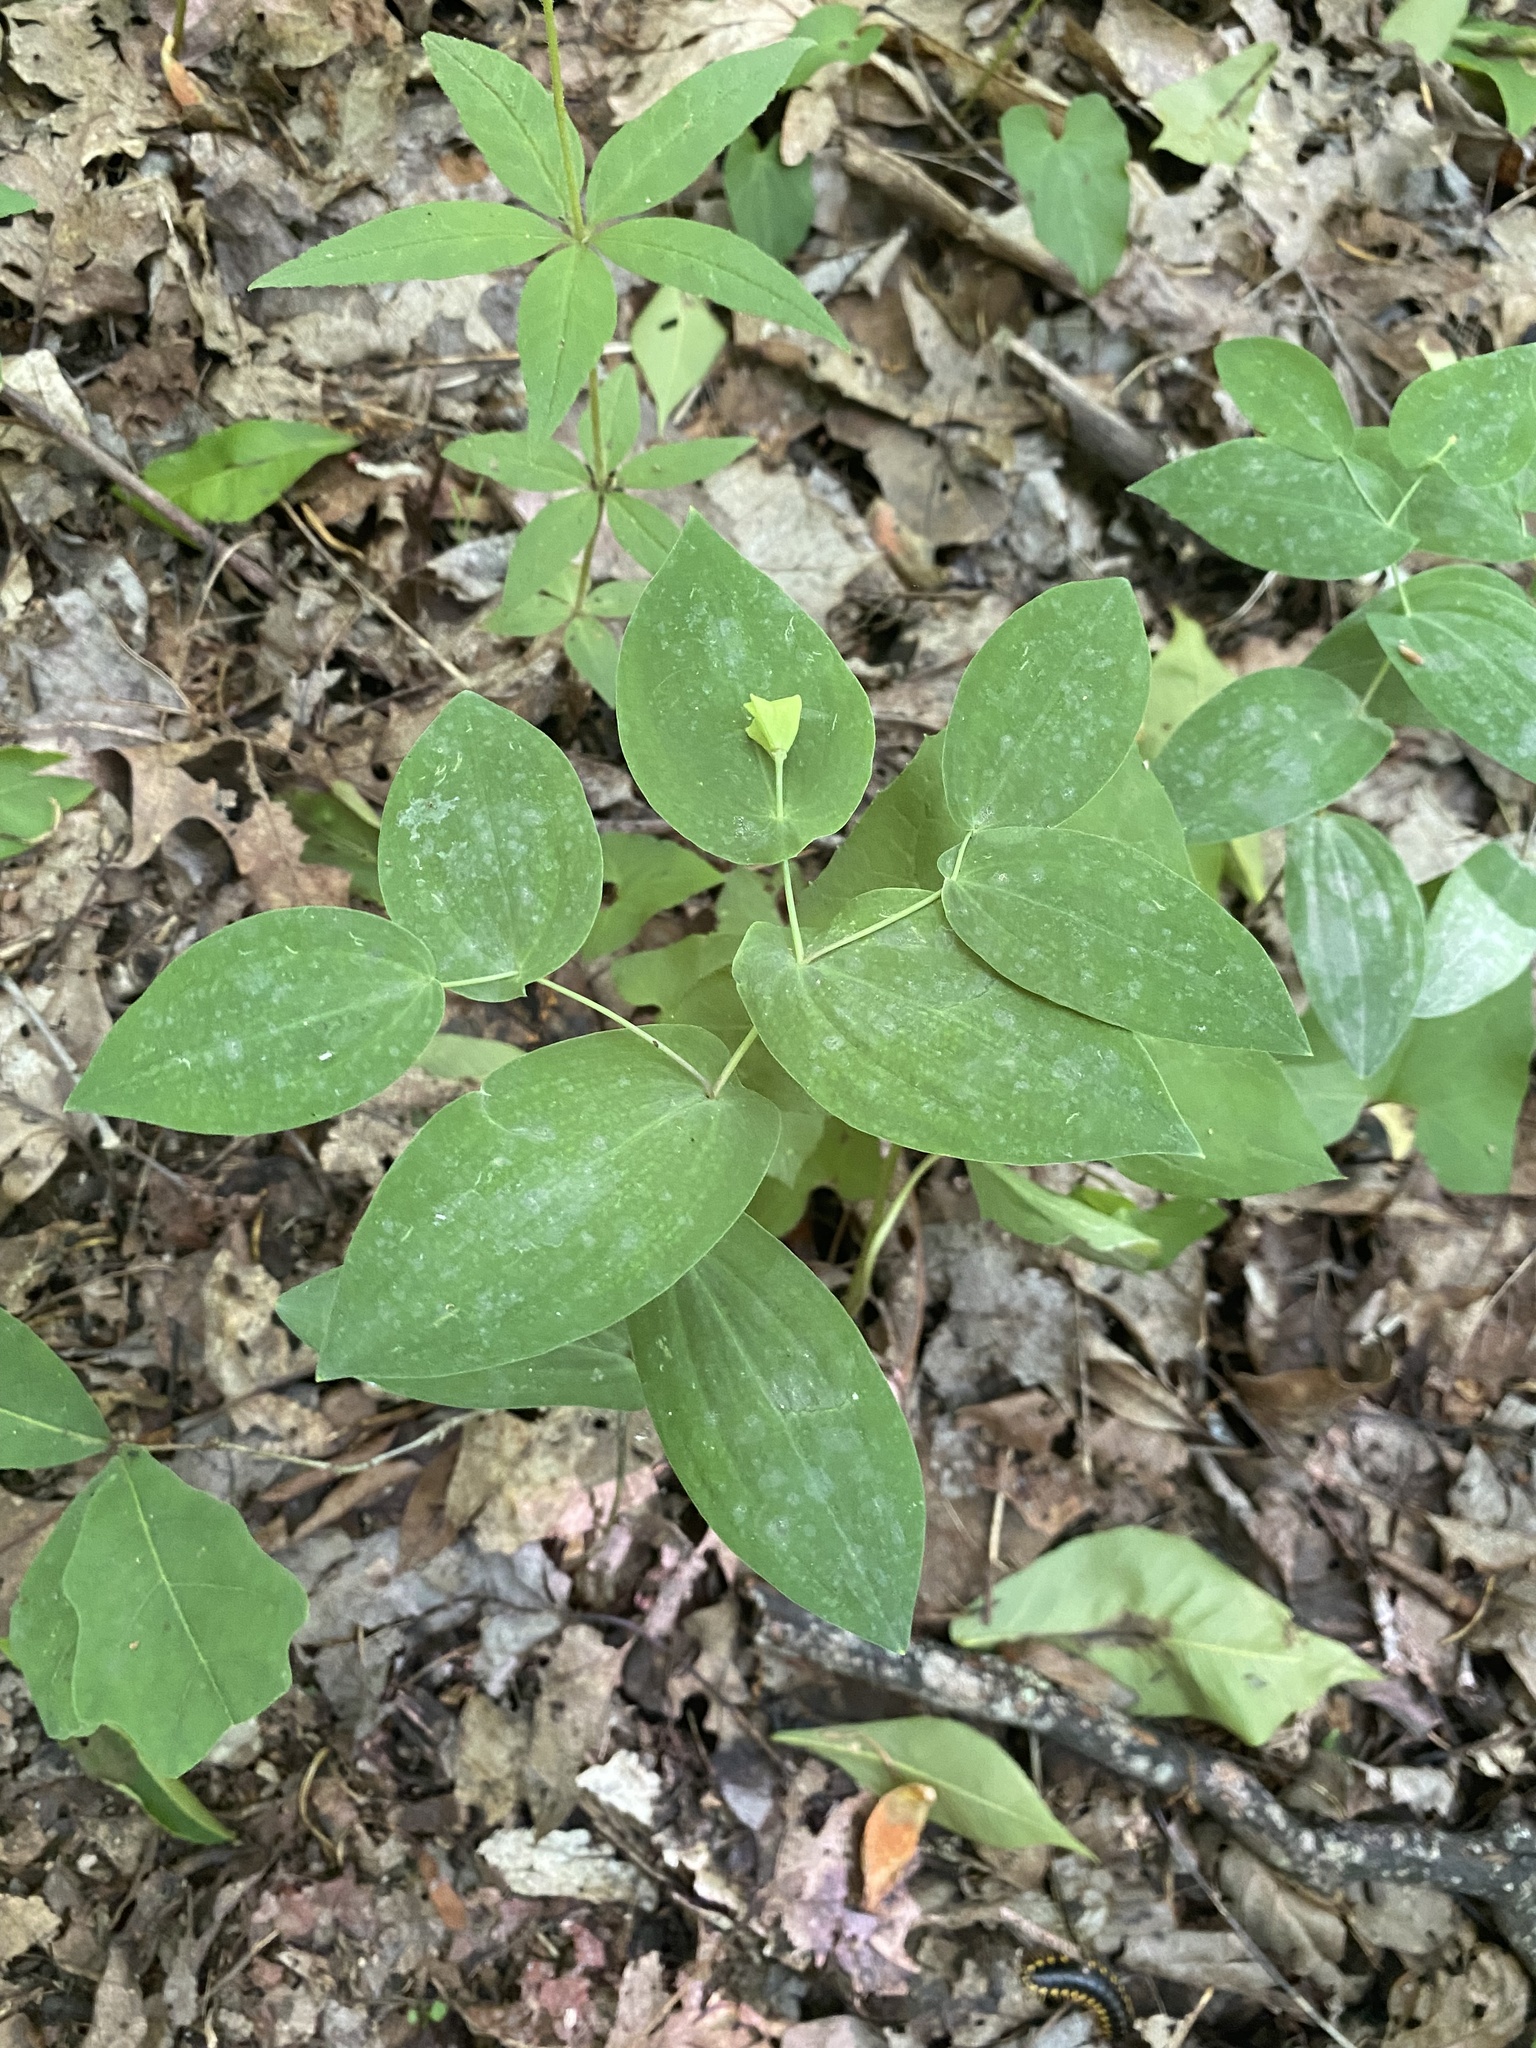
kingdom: Plantae
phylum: Tracheophyta
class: Liliopsida
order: Liliales
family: Colchicaceae
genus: Uvularia
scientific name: Uvularia perfoliata
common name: Perfoliate bellwort
